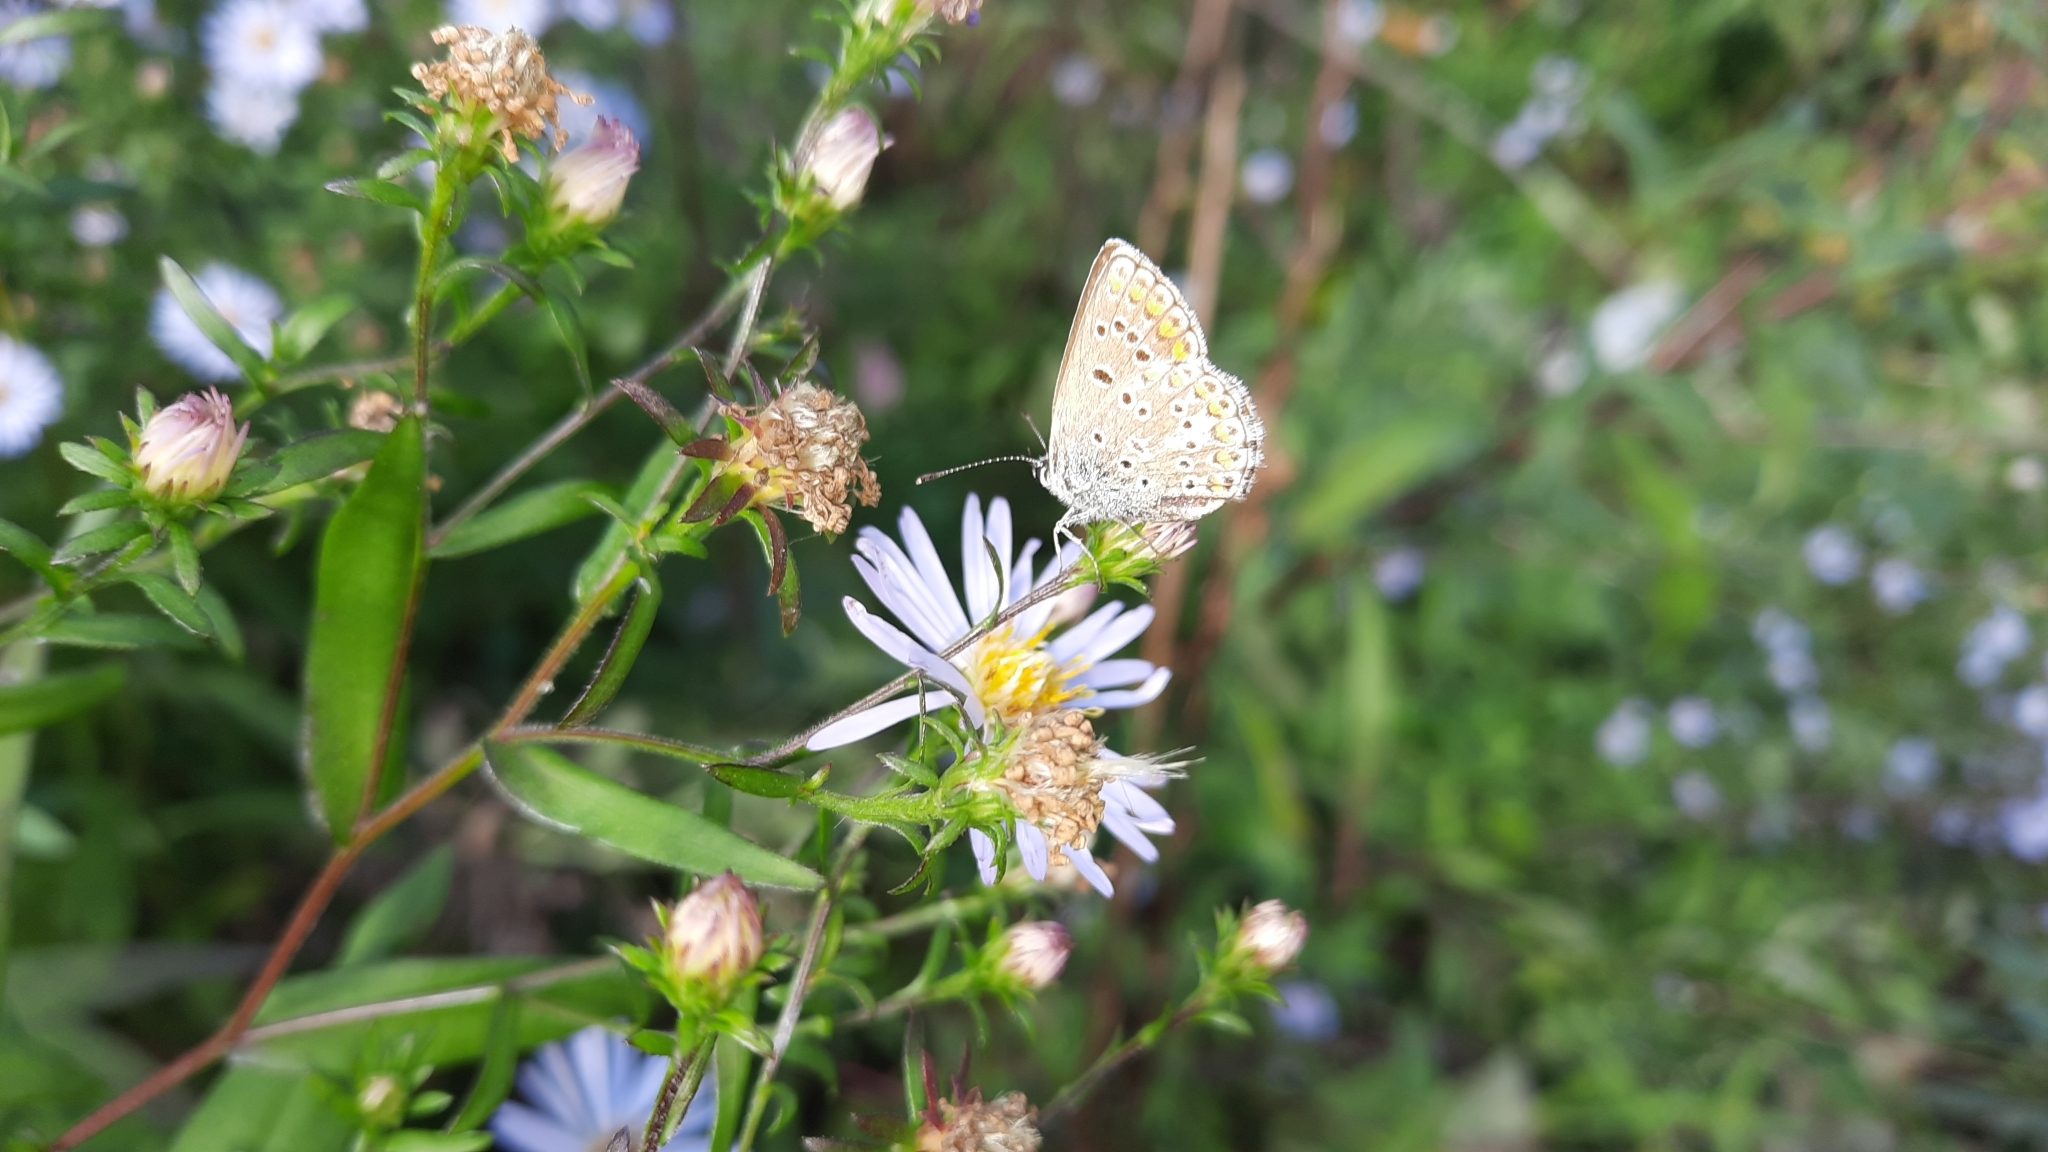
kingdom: Animalia
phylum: Arthropoda
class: Insecta
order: Lepidoptera
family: Lycaenidae
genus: Aricia
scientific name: Aricia artaxerxes
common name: Northern brown argus
